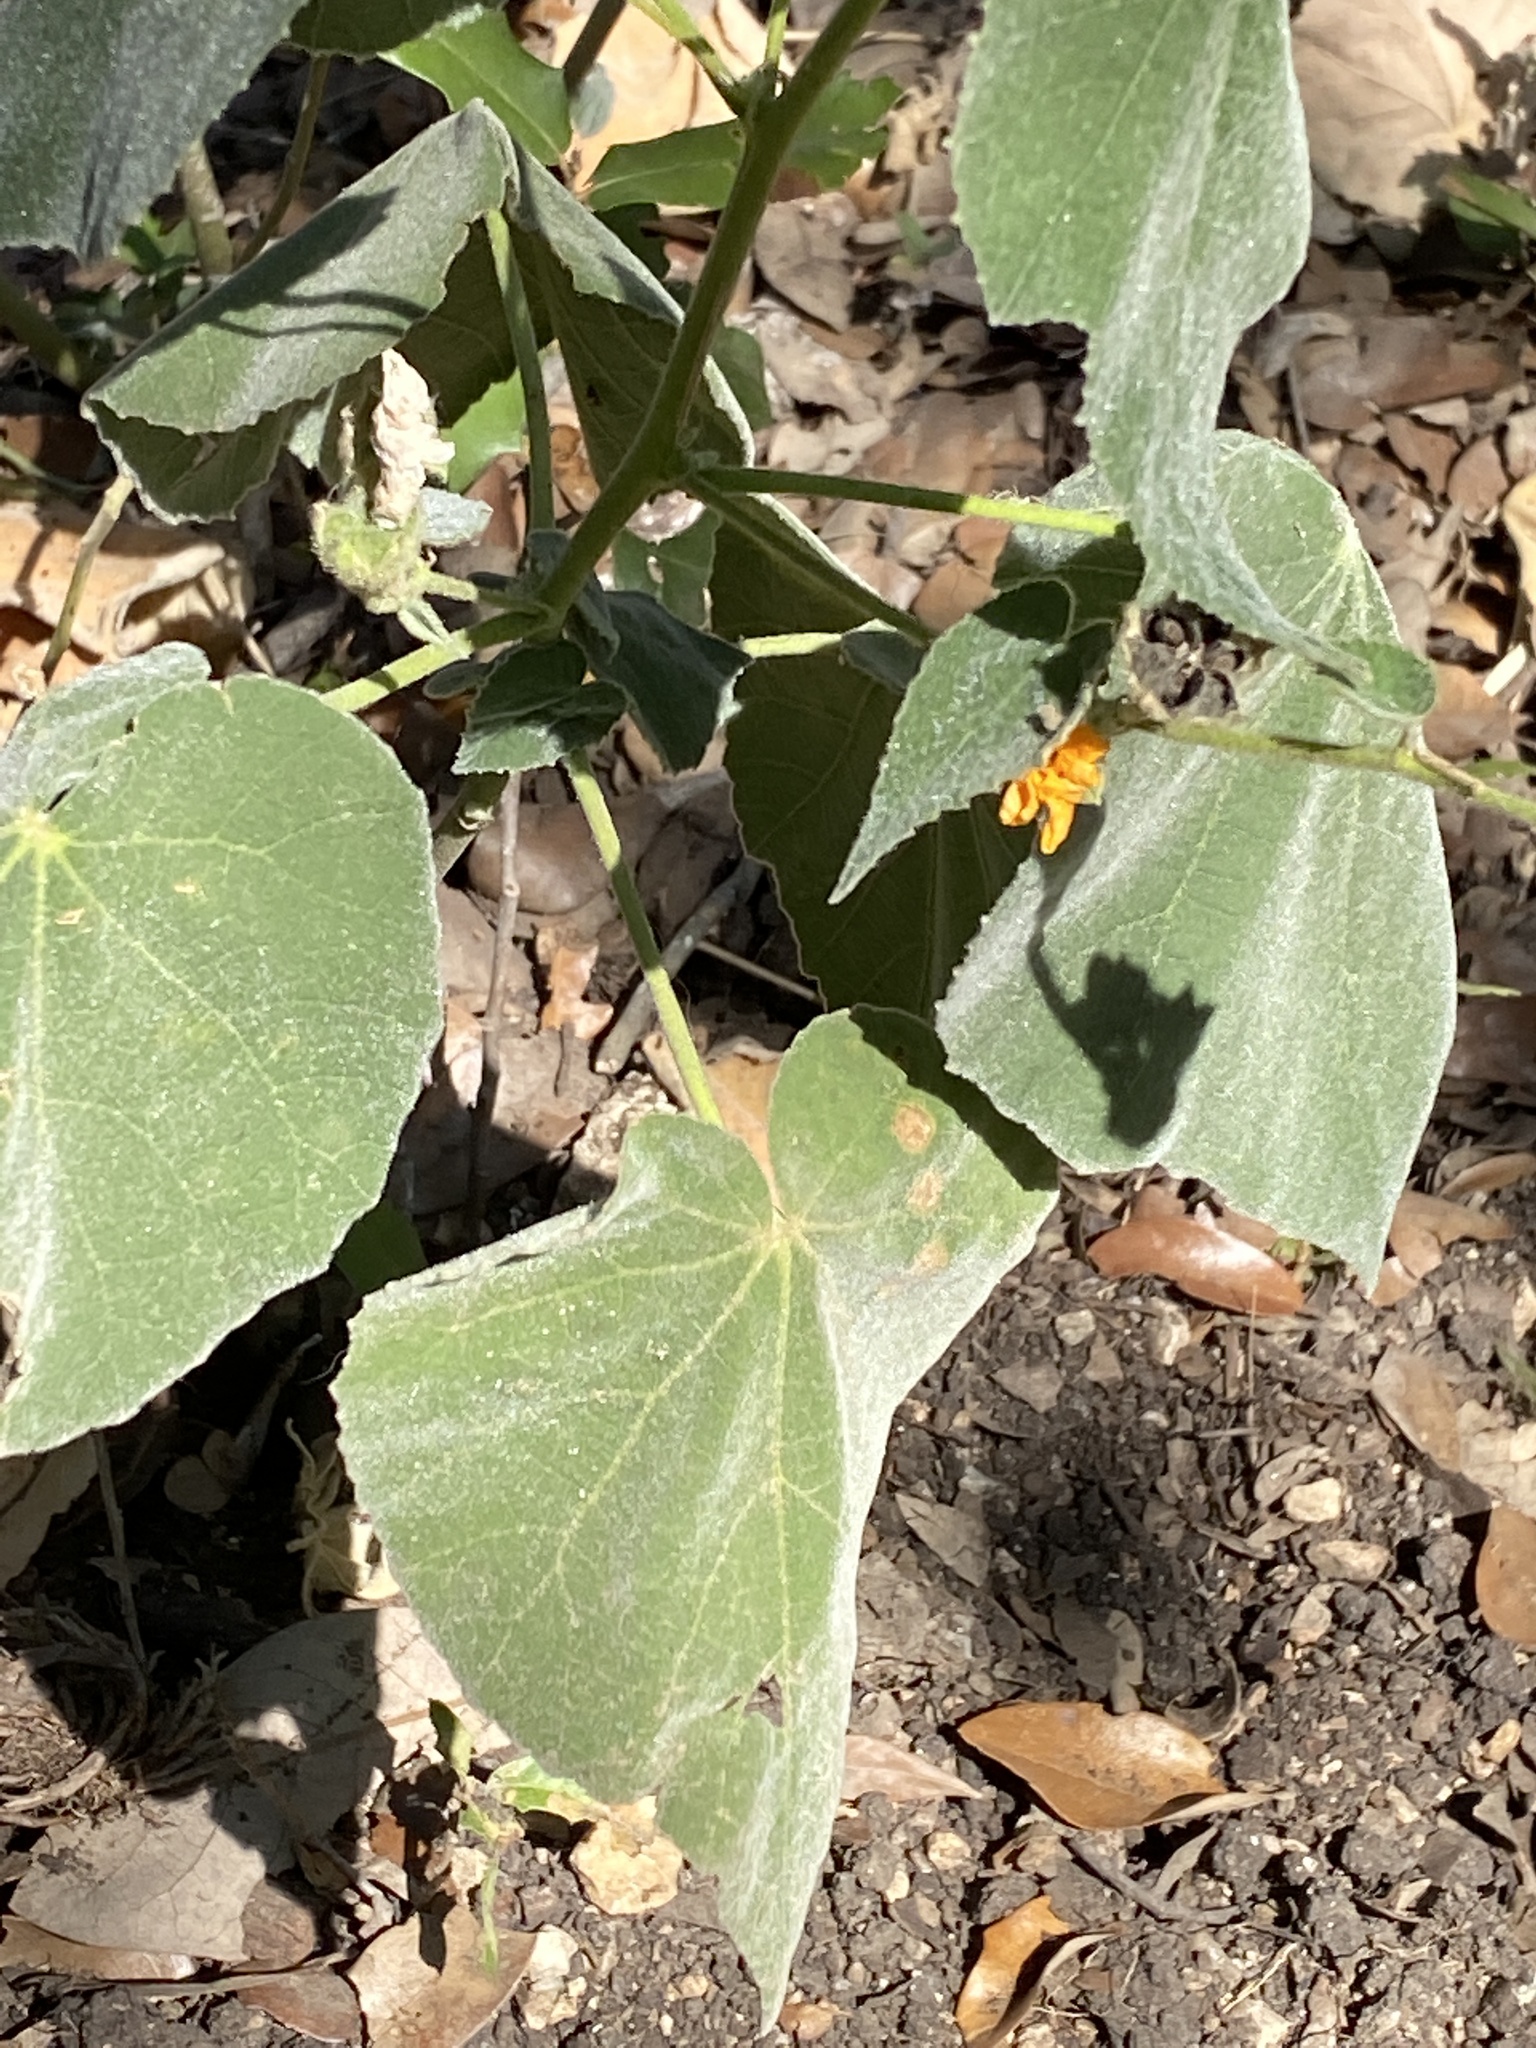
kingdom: Plantae
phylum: Tracheophyta
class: Magnoliopsida
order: Malvales
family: Malvaceae
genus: Allowissadula
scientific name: Allowissadula holosericea
